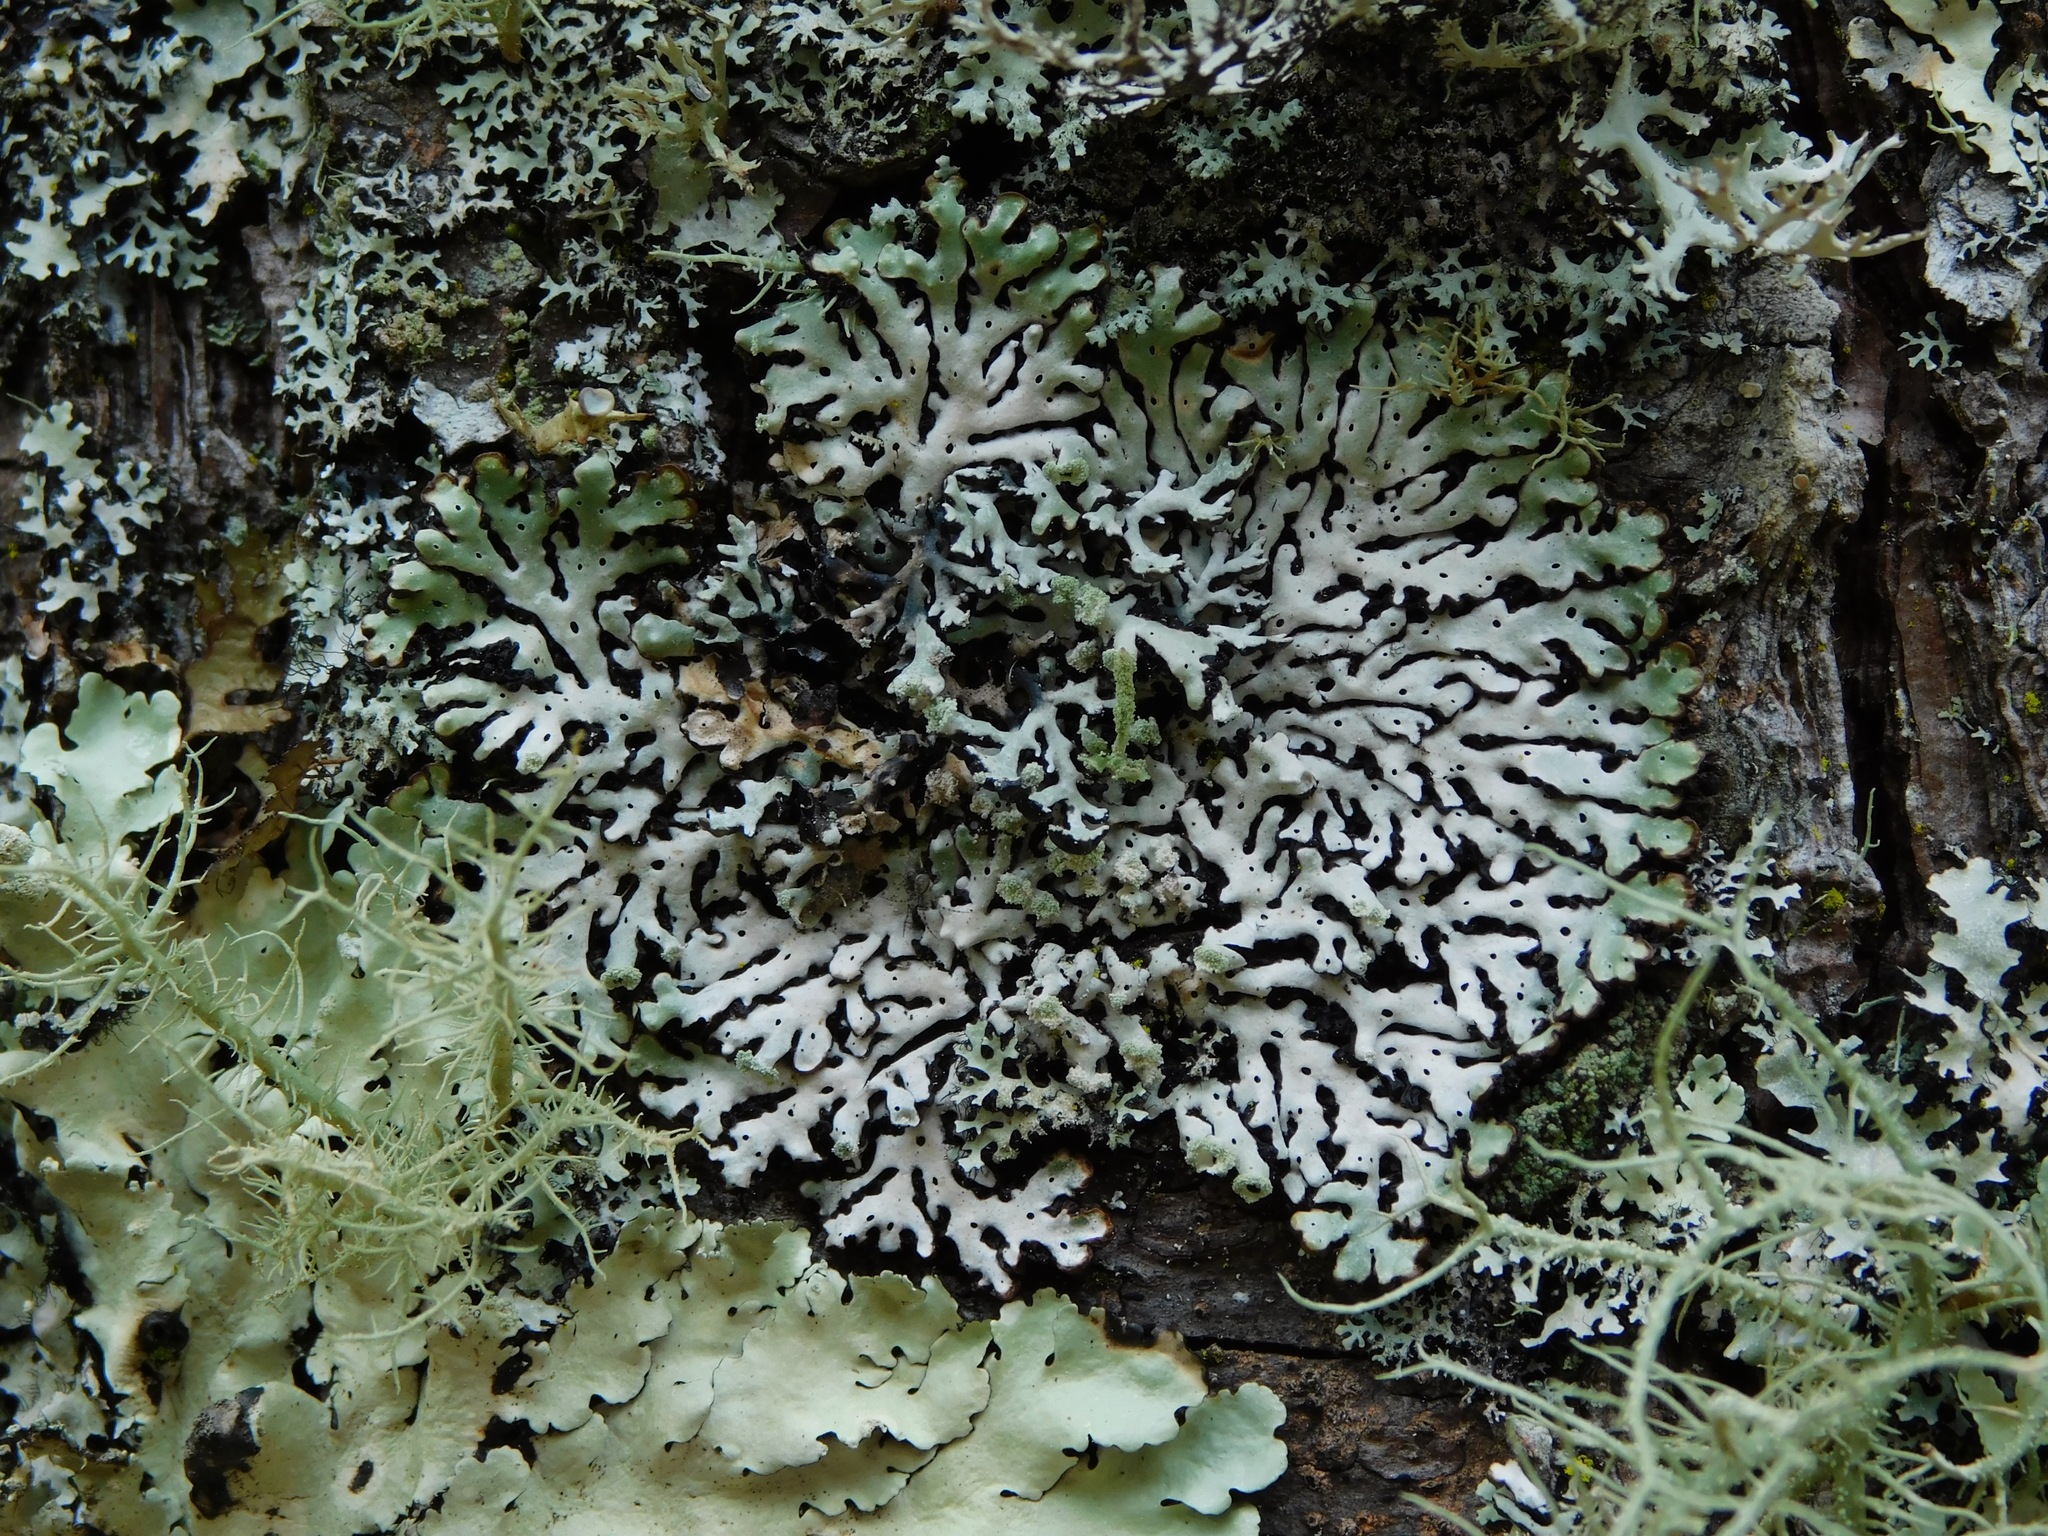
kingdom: Fungi
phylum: Ascomycota
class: Lecanoromycetes
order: Lecanorales
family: Parmeliaceae
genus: Menegazzia
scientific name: Menegazzia subsimilis
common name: Tree flute lichen
